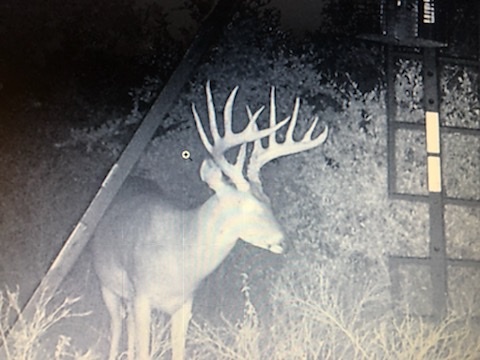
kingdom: Animalia
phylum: Chordata
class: Mammalia
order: Artiodactyla
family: Cervidae
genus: Odocoileus
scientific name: Odocoileus virginianus
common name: White-tailed deer
